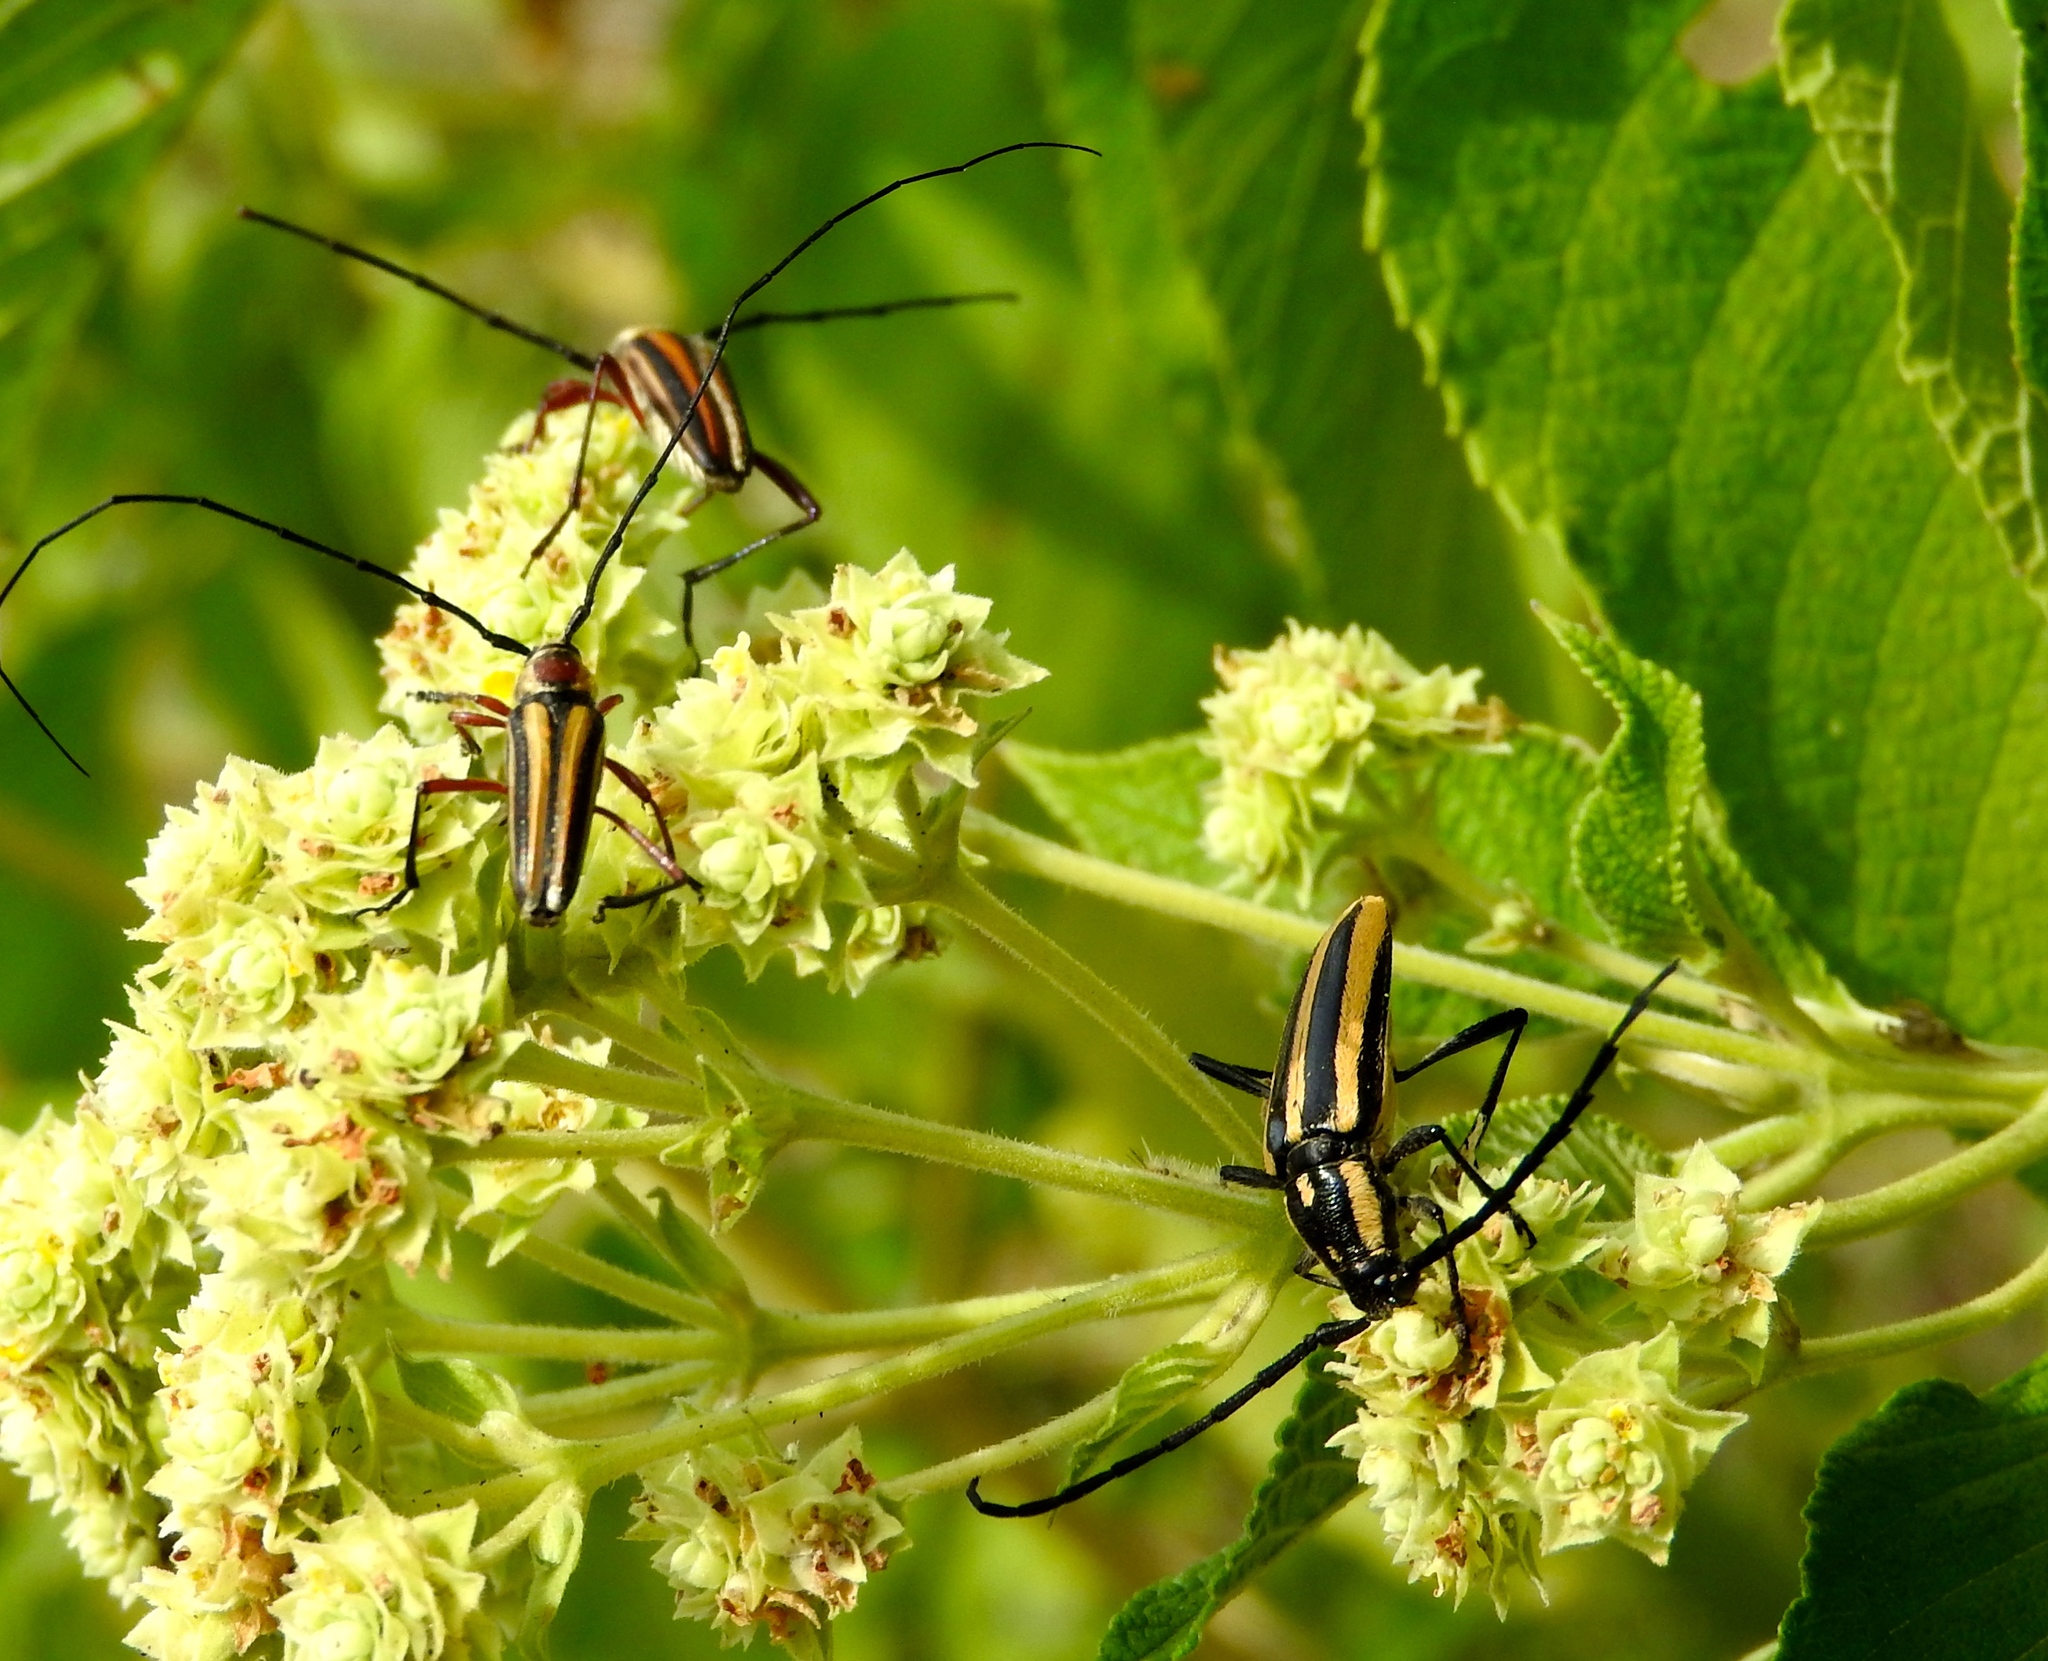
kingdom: Animalia
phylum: Arthropoda
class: Insecta
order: Coleoptera
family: Cerambycidae
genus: Sphaenothecus
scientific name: Sphaenothecus trilineatus
